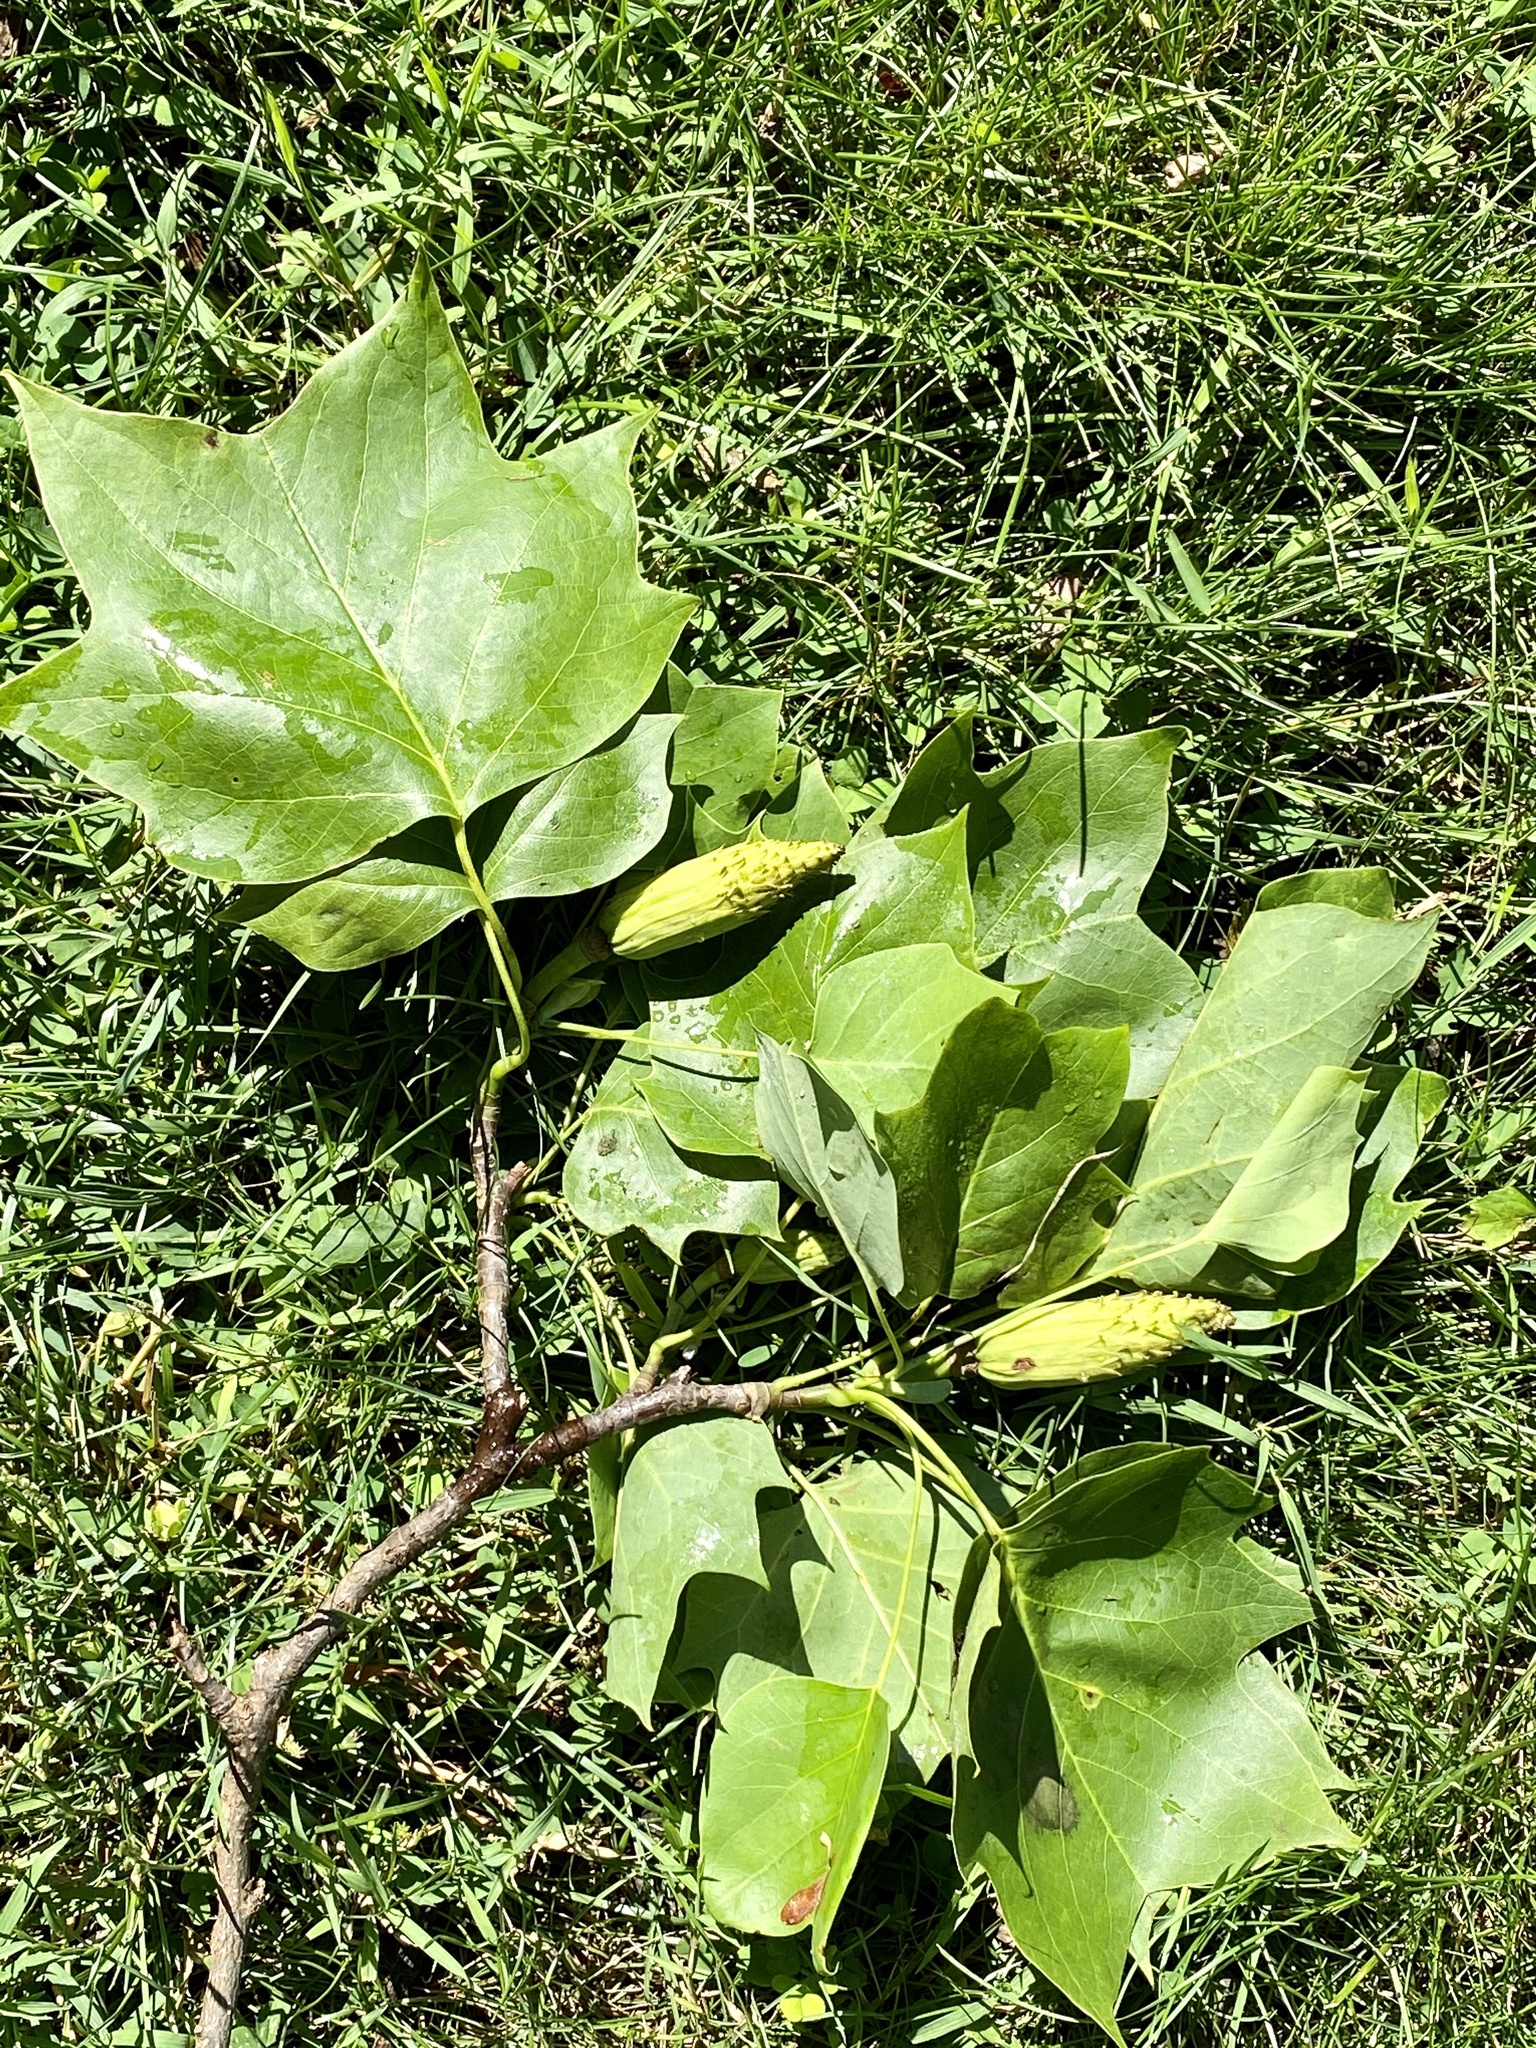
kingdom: Plantae
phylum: Tracheophyta
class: Magnoliopsida
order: Magnoliales
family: Magnoliaceae
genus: Liriodendron
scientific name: Liriodendron tulipifera
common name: Tulip tree
